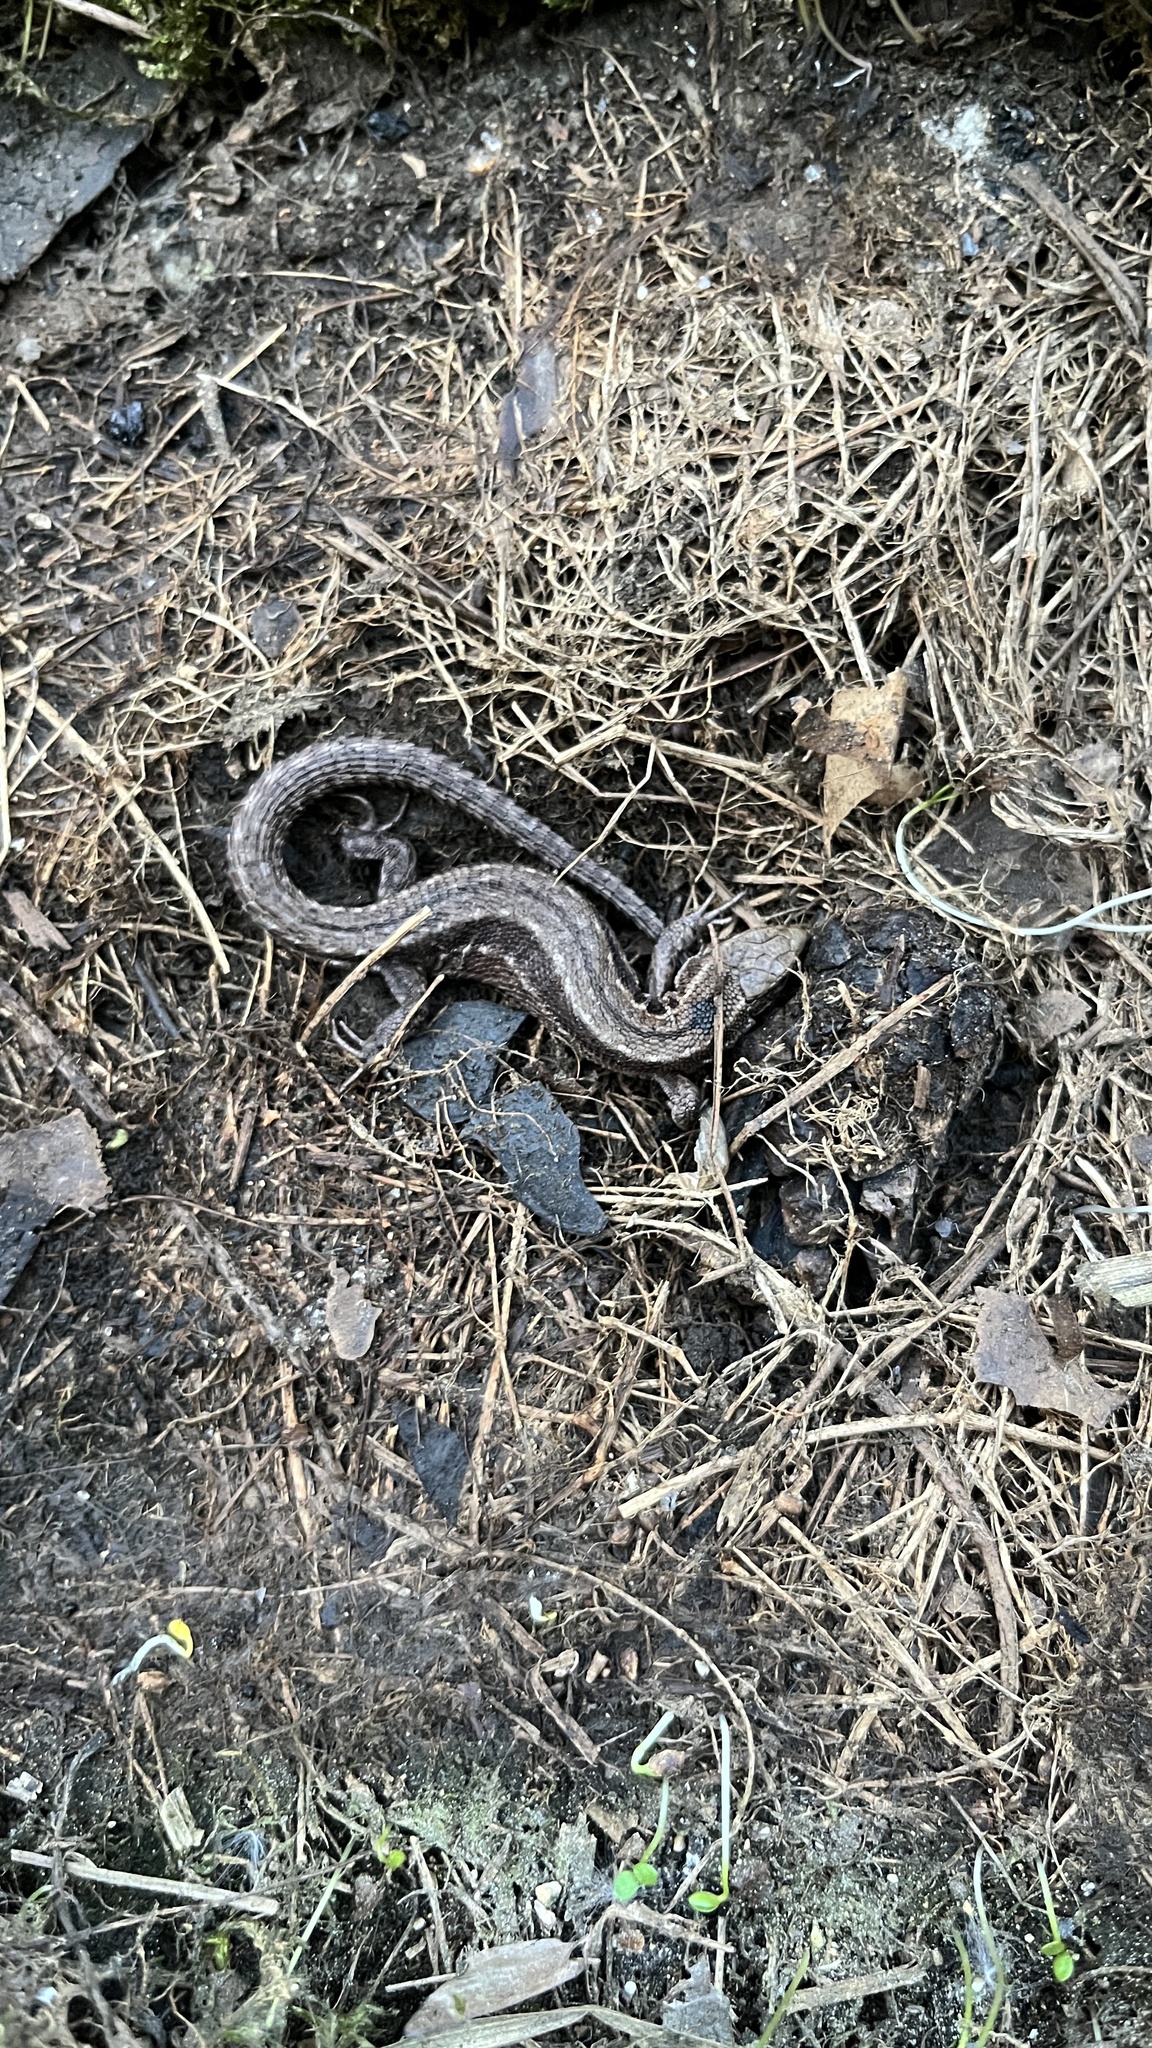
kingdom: Animalia
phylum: Chordata
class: Squamata
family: Lacertidae
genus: Zootoca
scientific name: Zootoca vivipara
